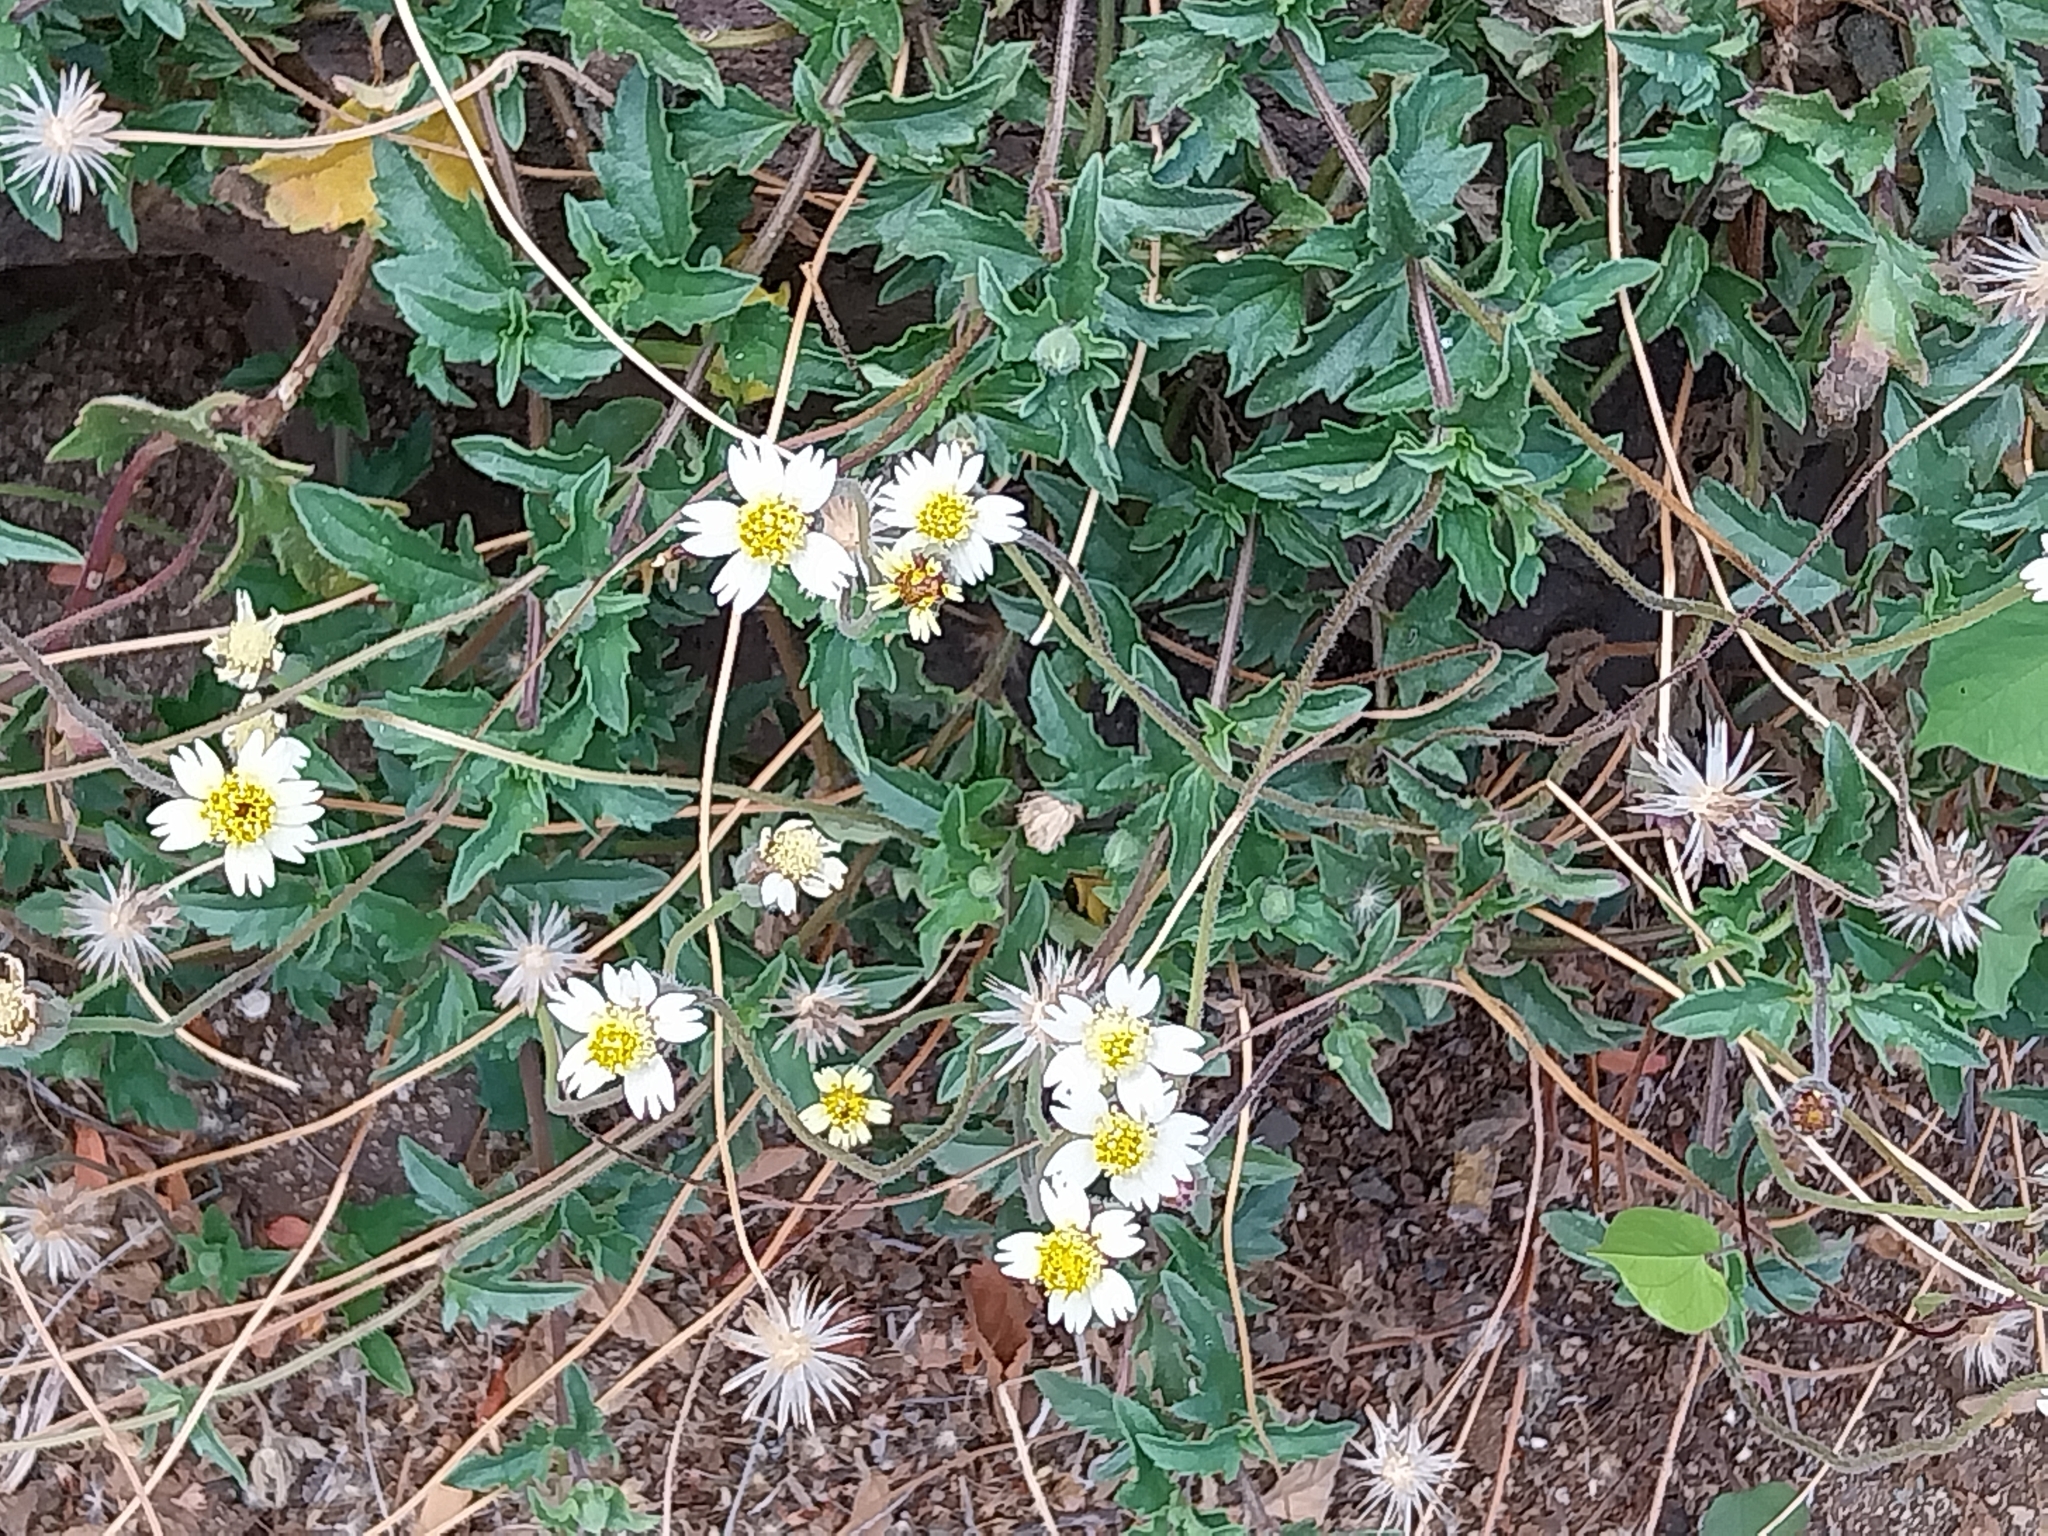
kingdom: Plantae
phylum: Tracheophyta
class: Magnoliopsida
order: Asterales
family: Asteraceae
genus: Tridax
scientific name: Tridax procumbens
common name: Coatbuttons
